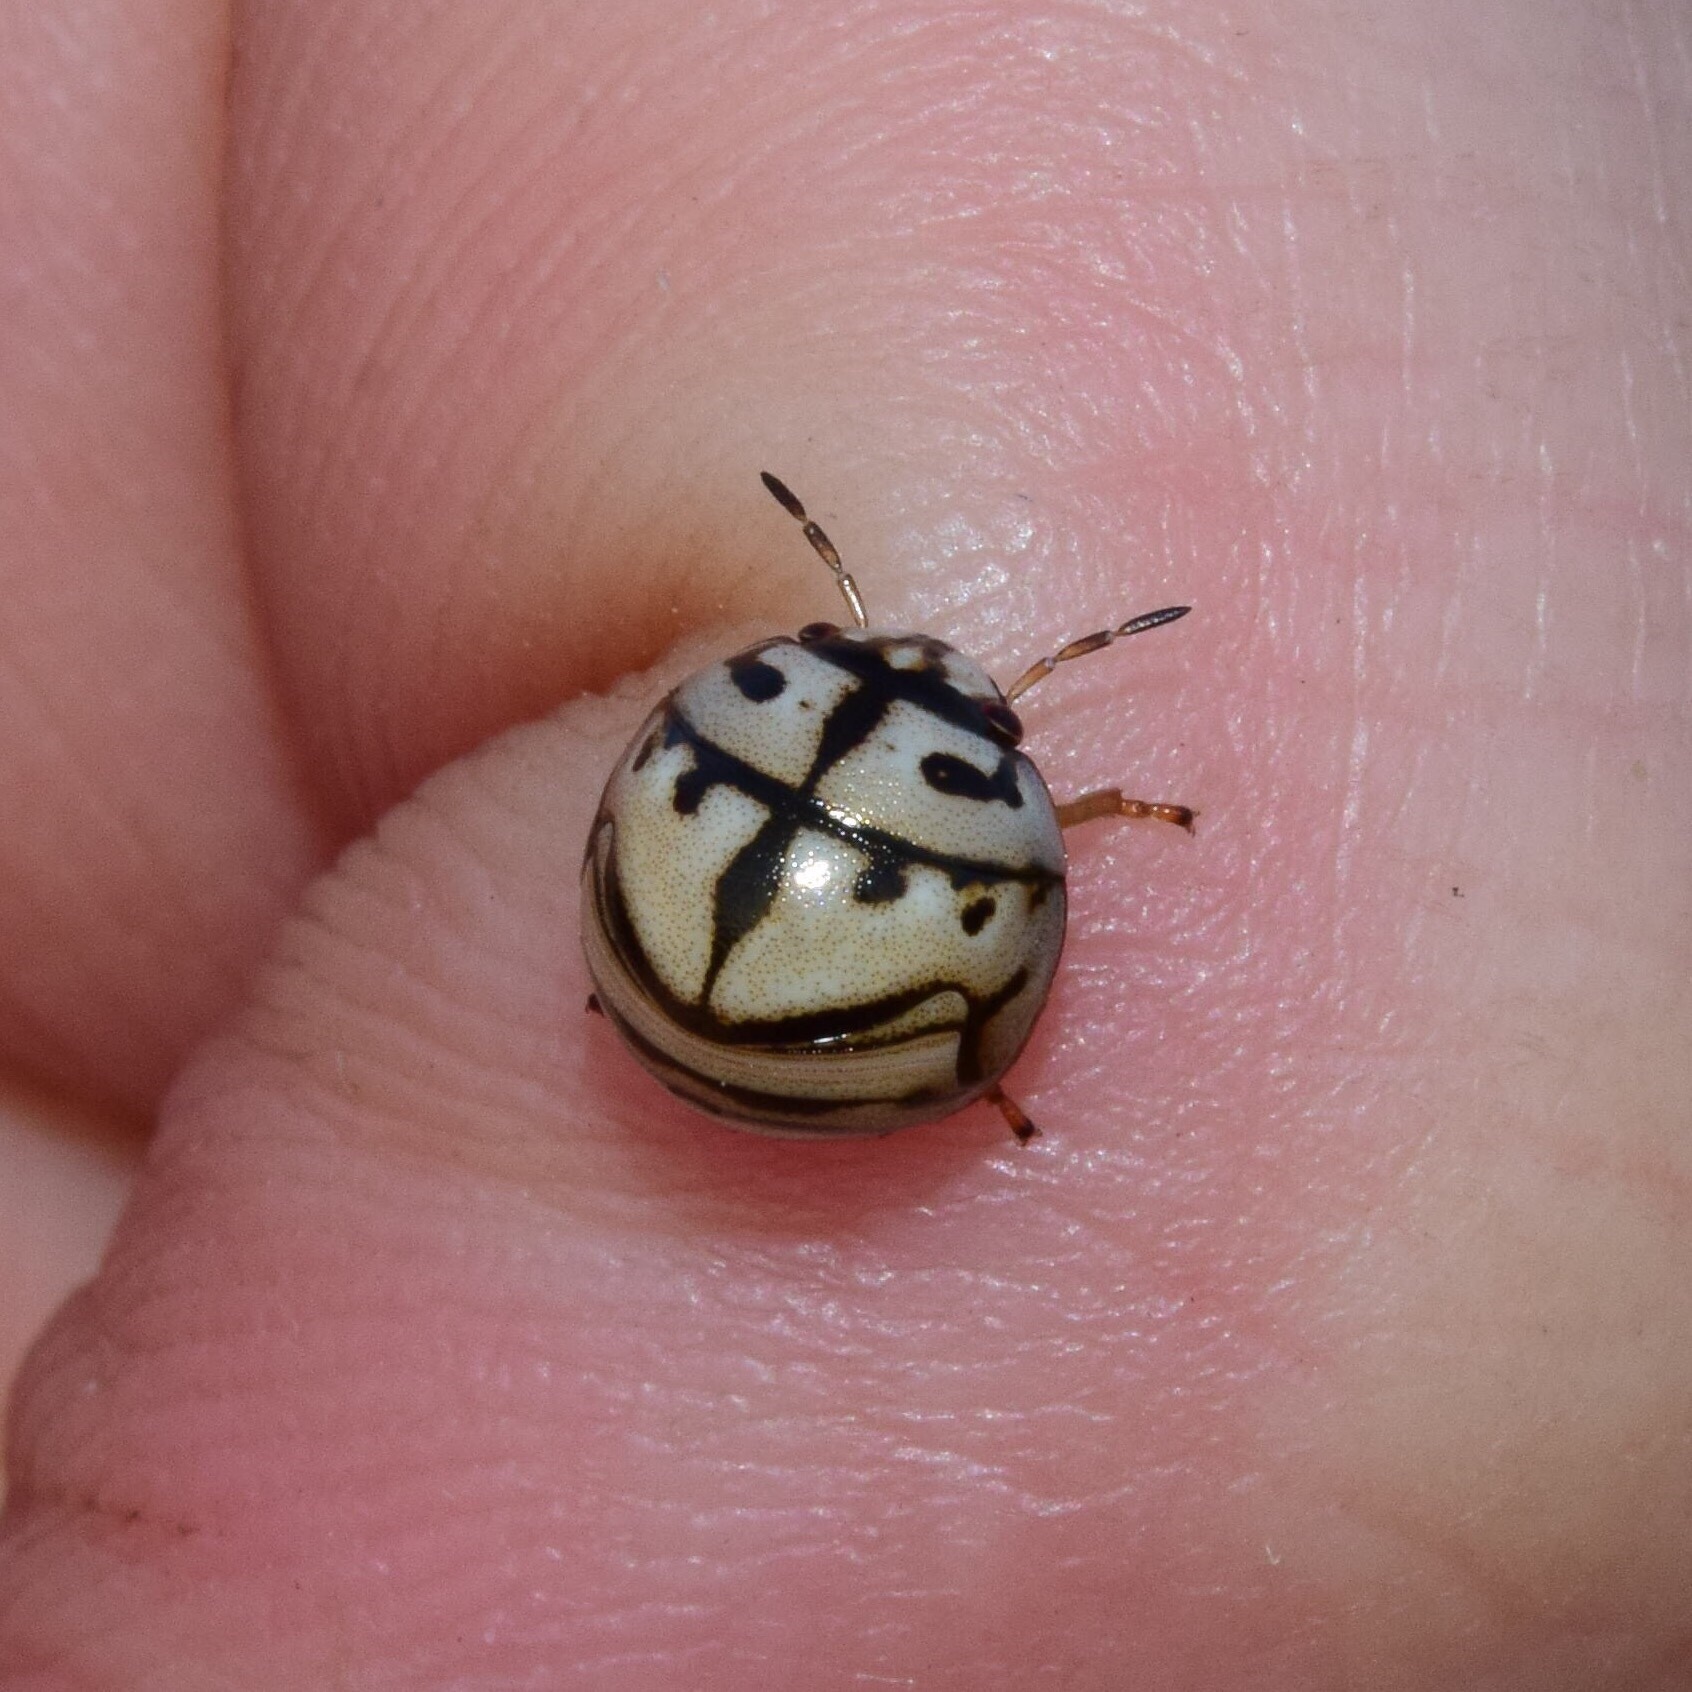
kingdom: Animalia
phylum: Arthropoda
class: Insecta
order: Hemiptera
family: Scutelleridae
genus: Sphaerocoris
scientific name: Sphaerocoris
